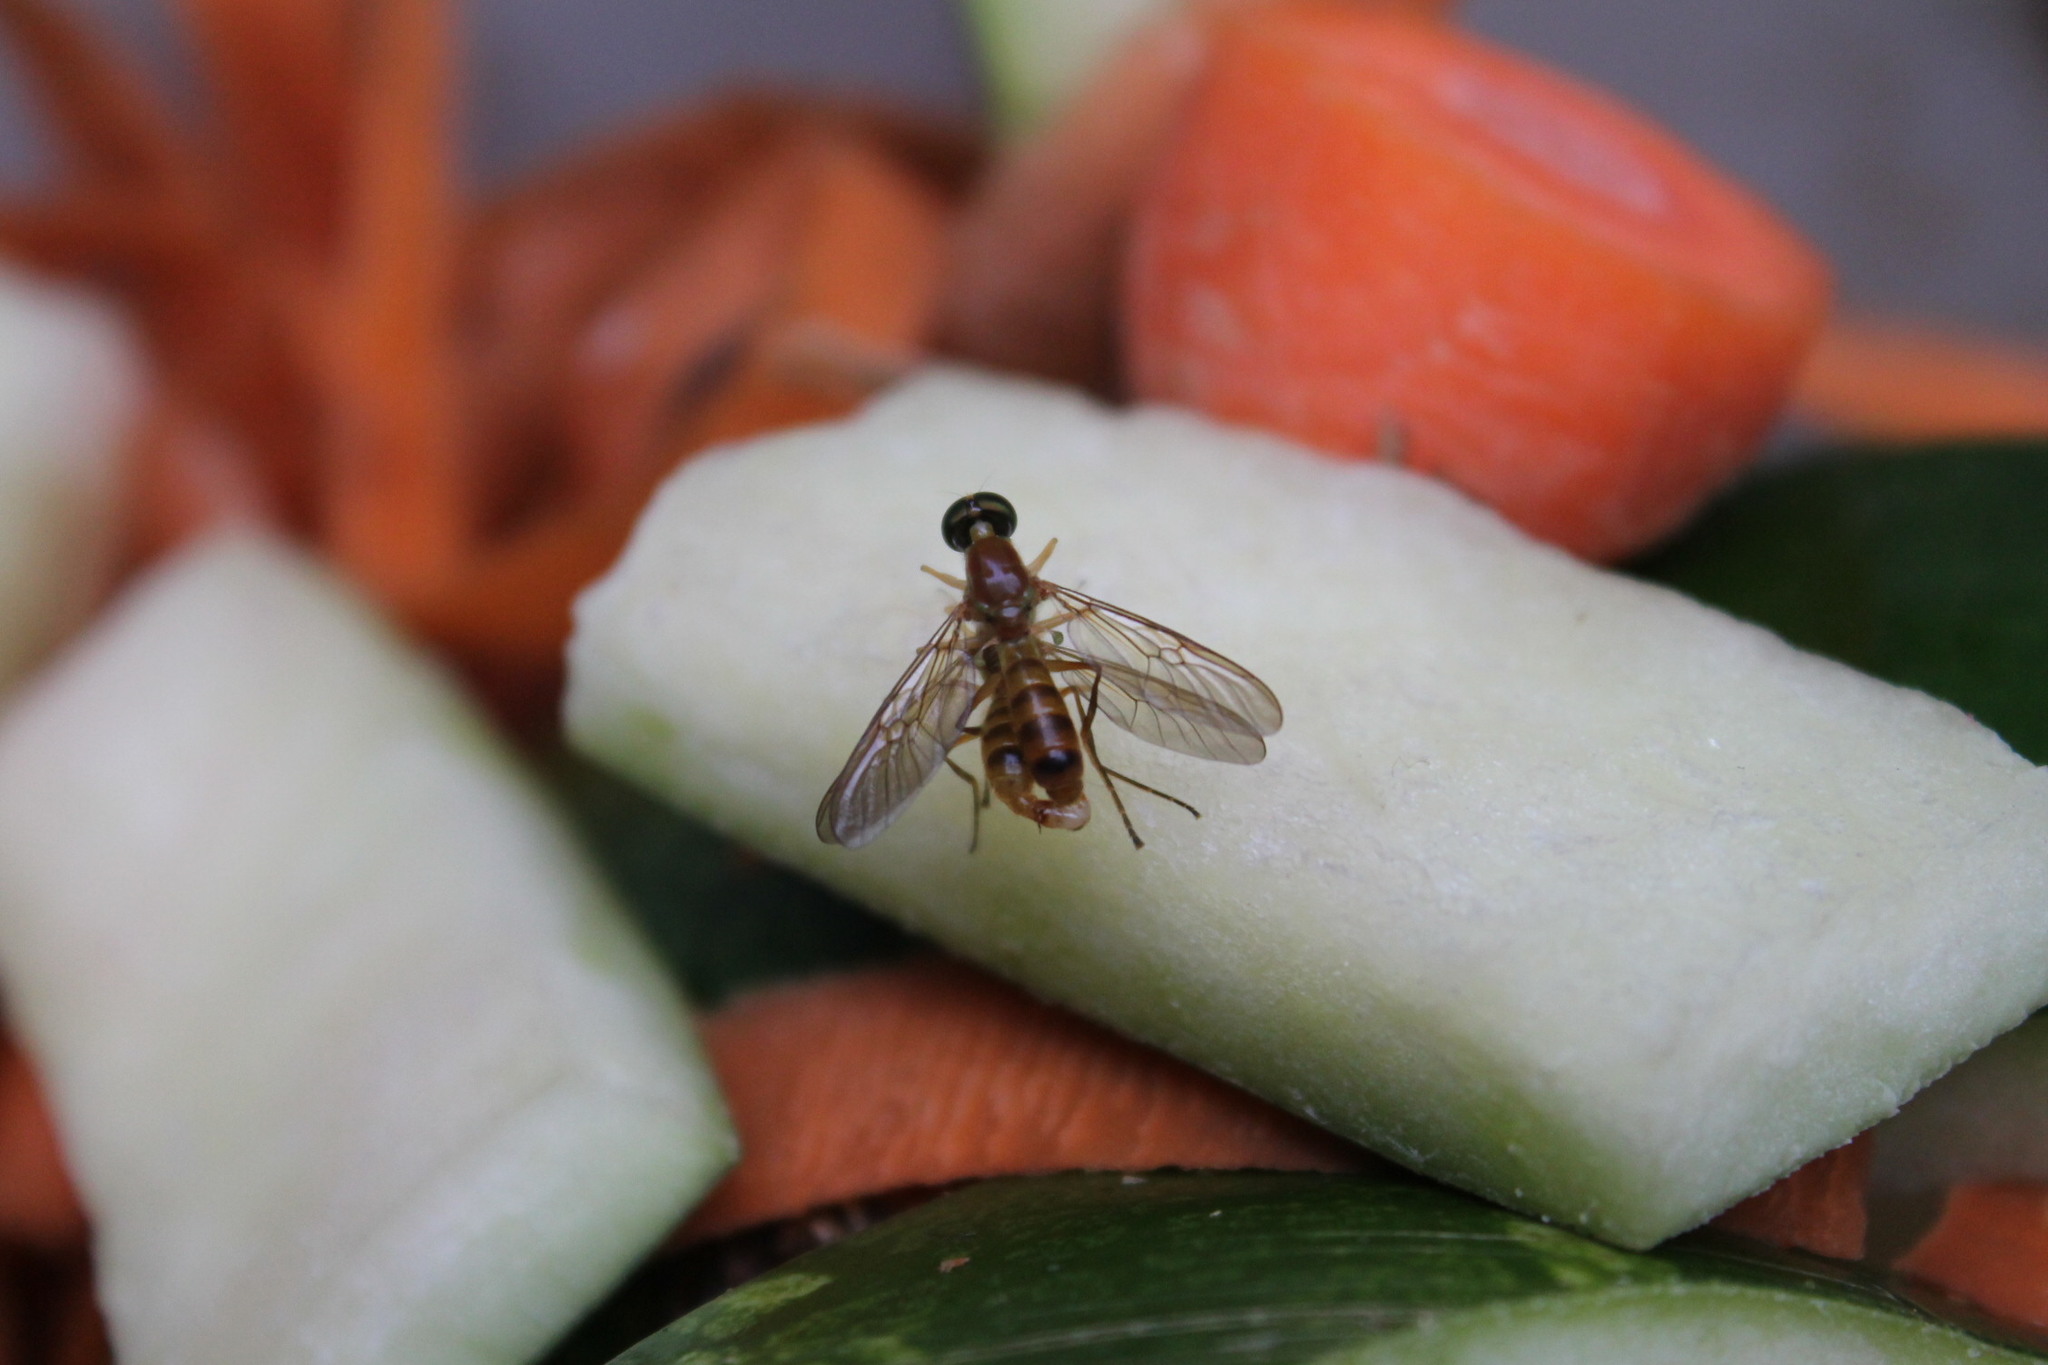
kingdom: Animalia
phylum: Arthropoda
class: Insecta
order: Diptera
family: Stratiomyidae
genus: Ptecticus
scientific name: Ptecticus trivittatus
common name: Compost fly
